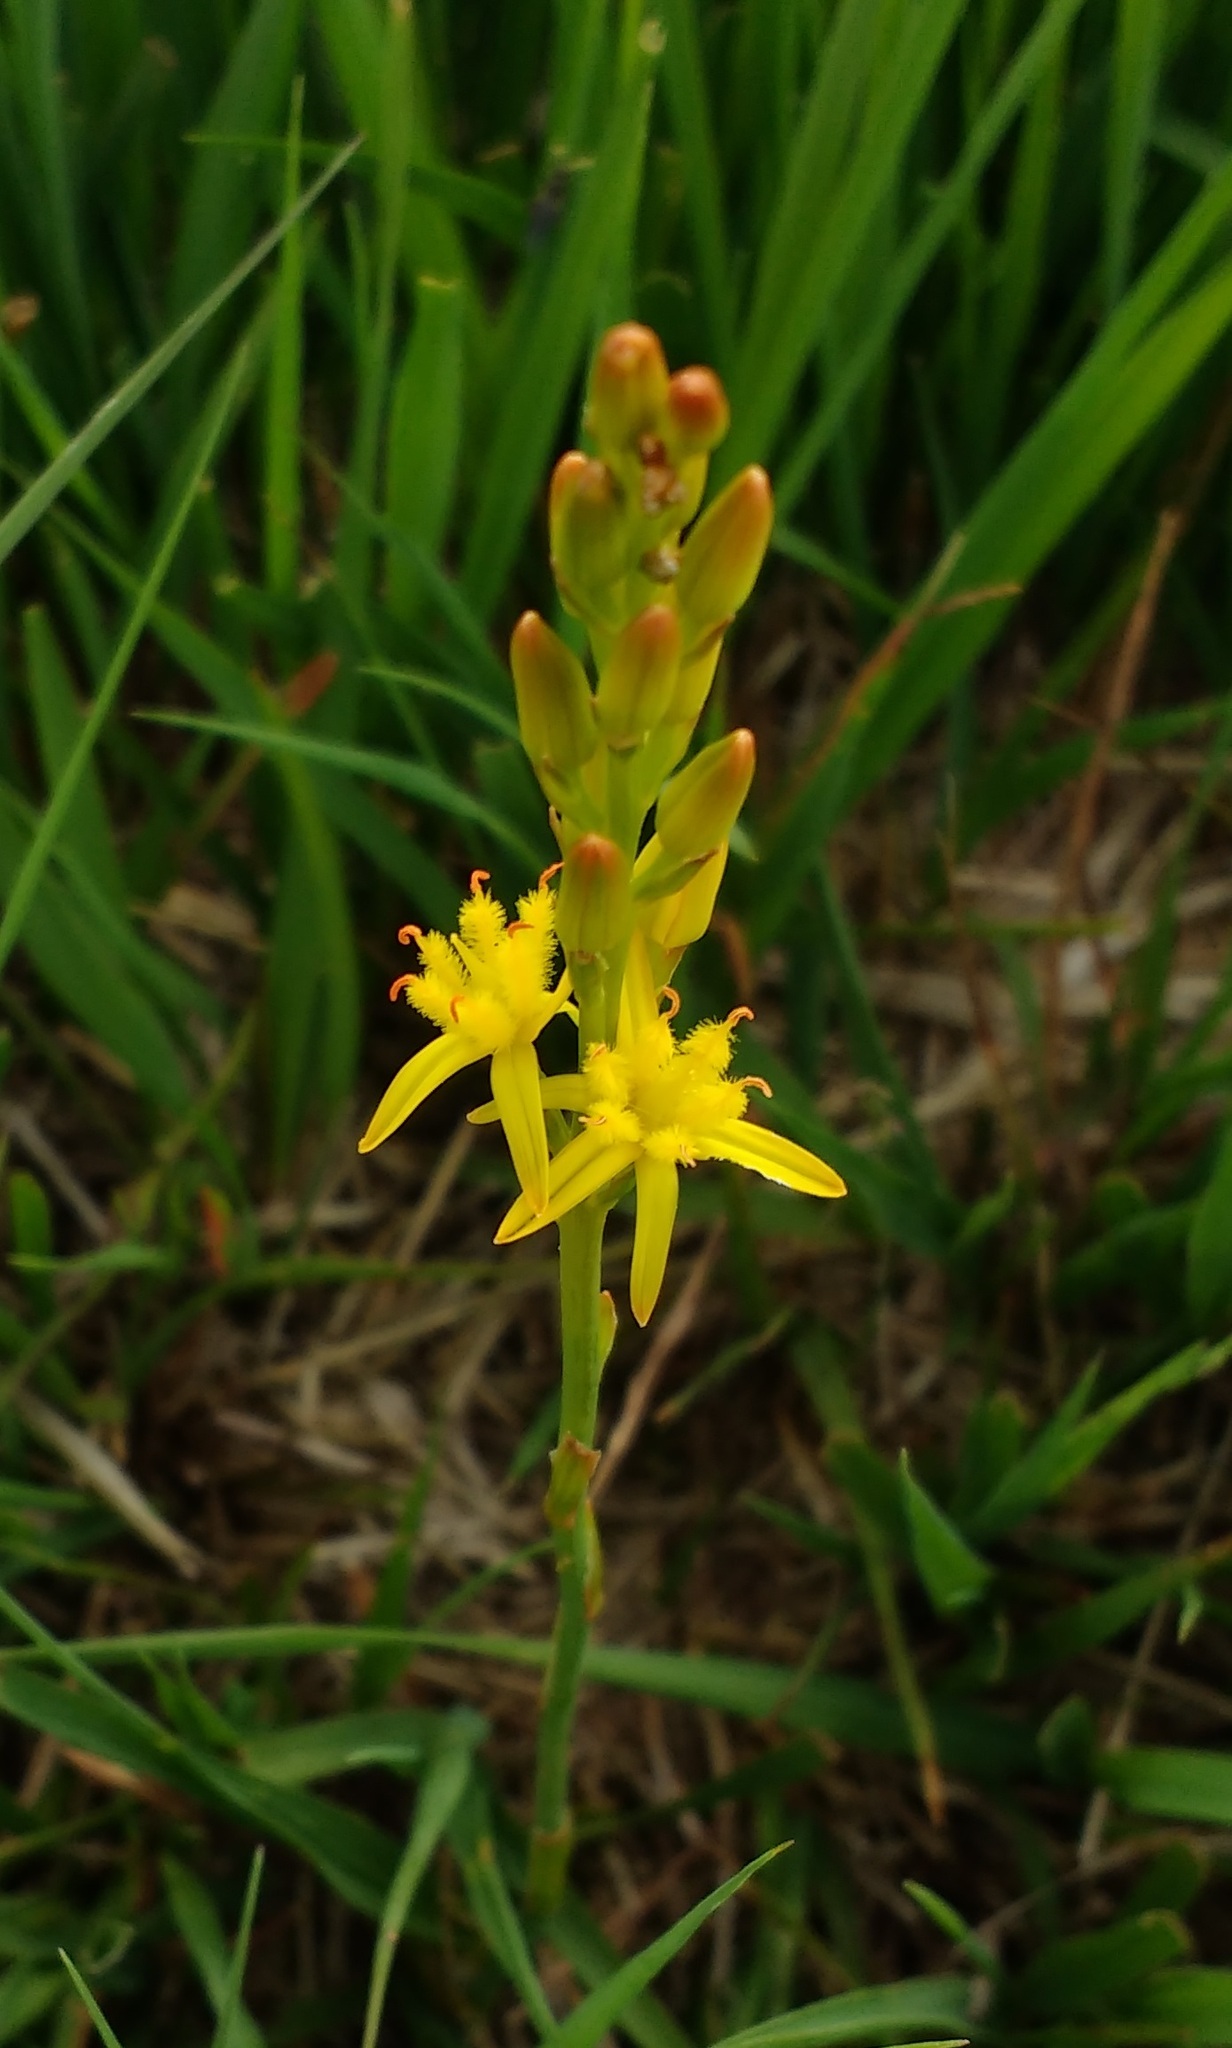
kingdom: Plantae
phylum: Tracheophyta
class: Liliopsida
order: Dioscoreales
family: Nartheciaceae
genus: Narthecium
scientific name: Narthecium ossifragum
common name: Bog asphodel
